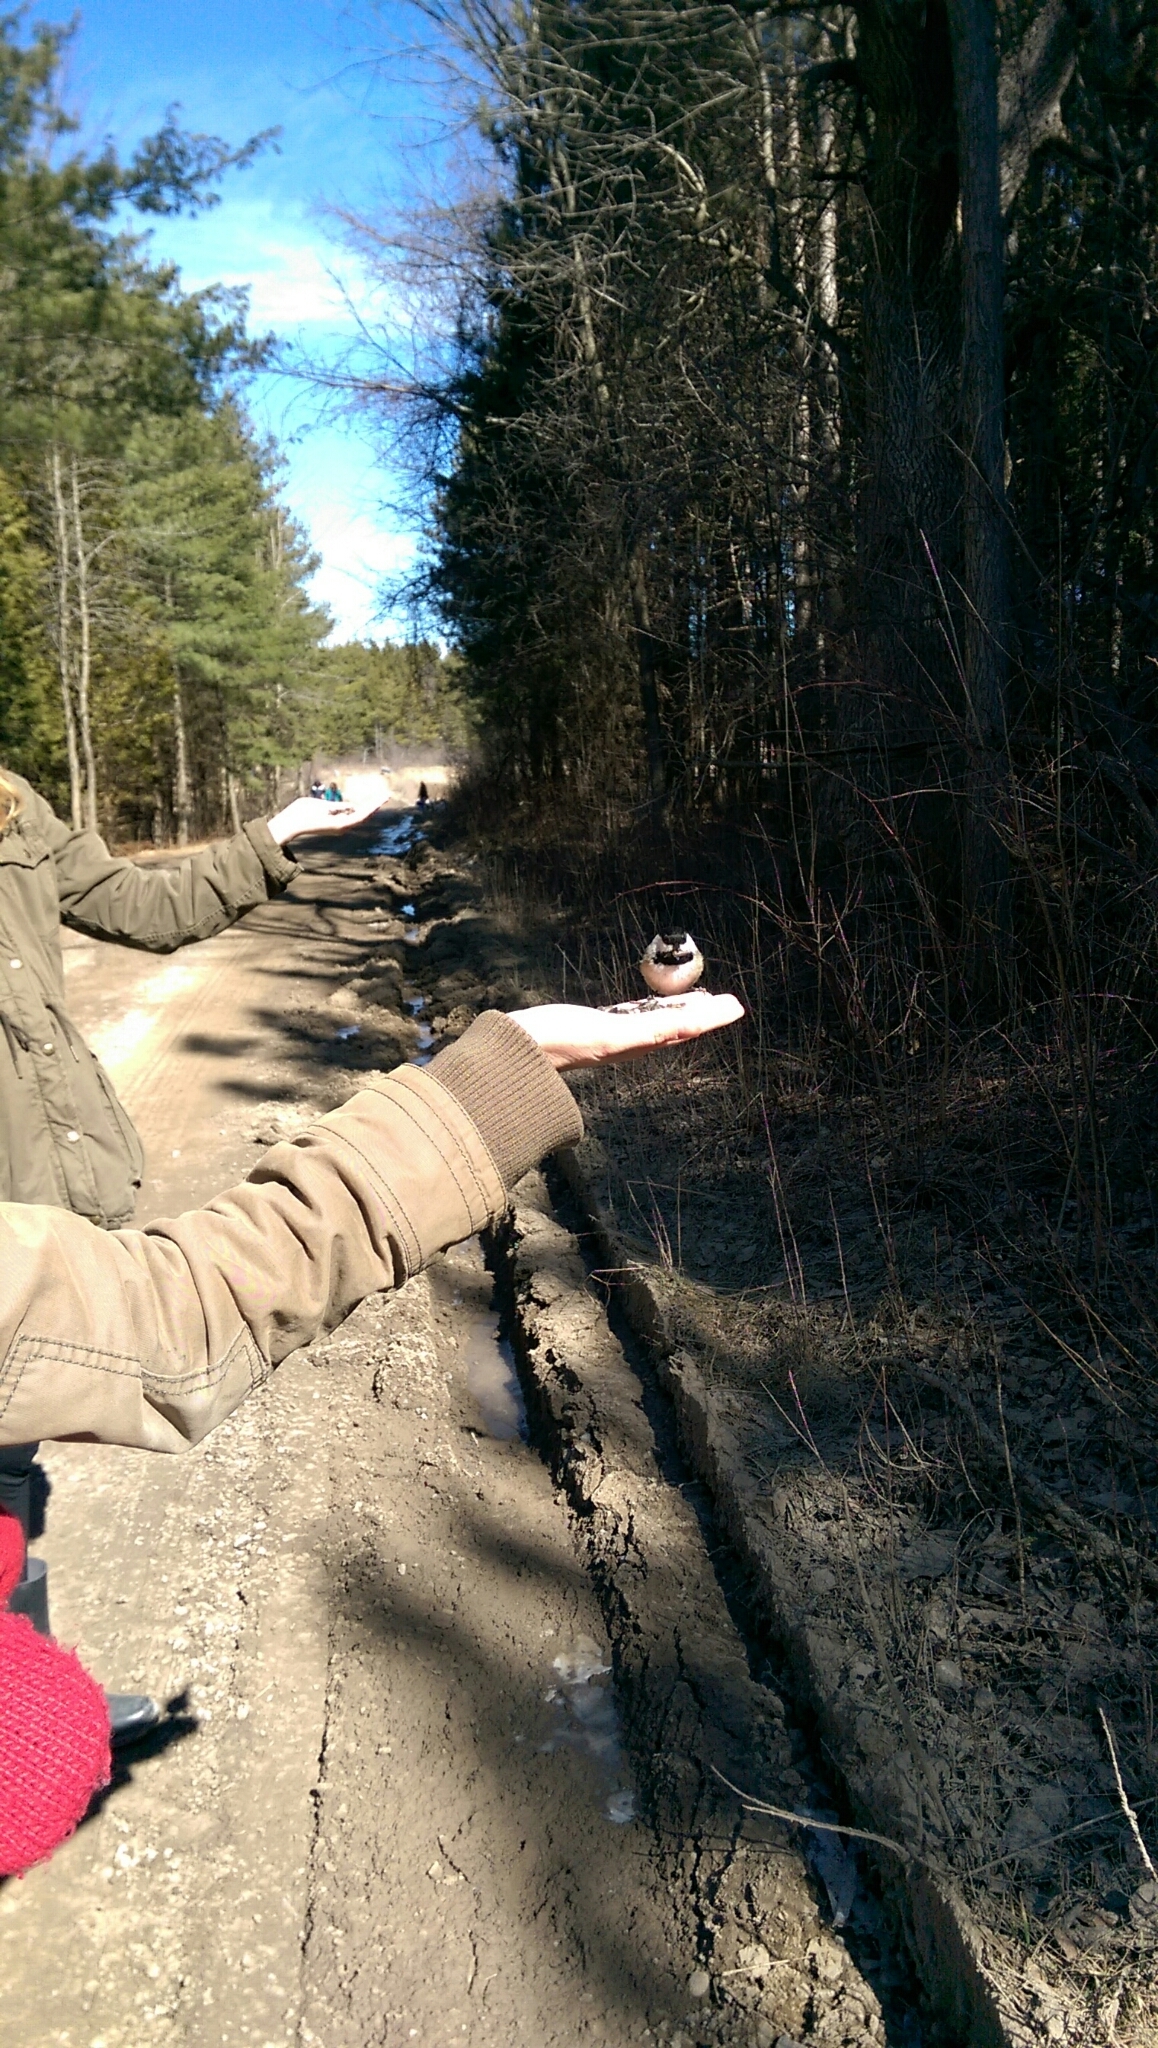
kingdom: Animalia
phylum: Chordata
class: Aves
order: Passeriformes
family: Paridae
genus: Poecile
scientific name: Poecile atricapillus
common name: Black-capped chickadee
